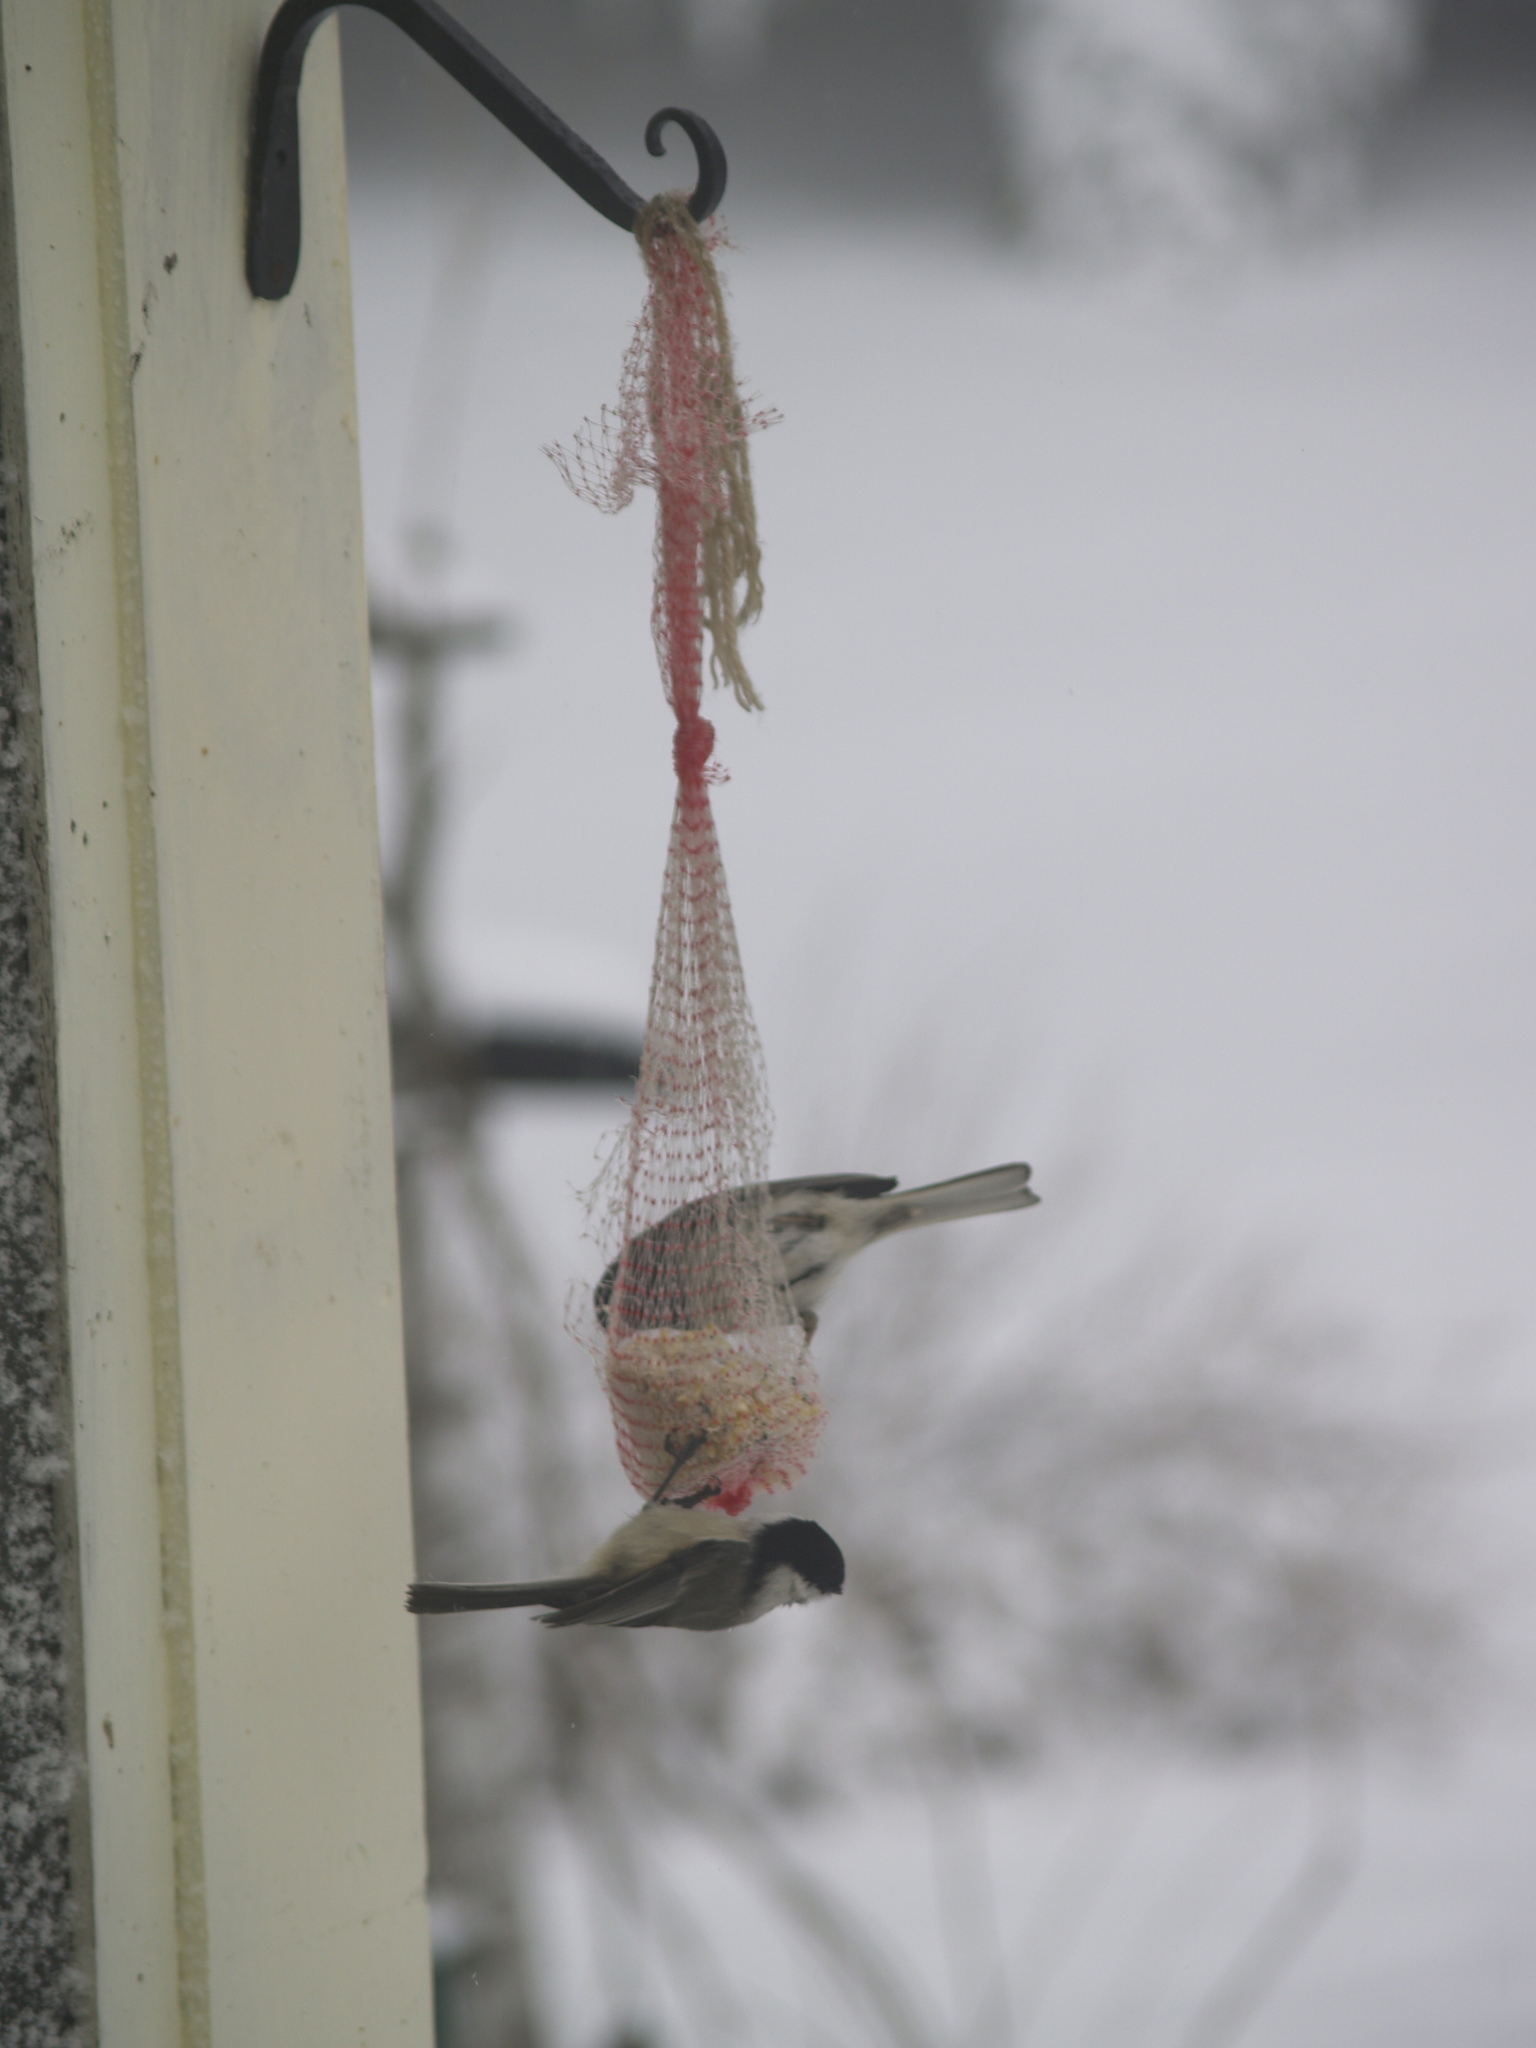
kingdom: Animalia
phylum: Chordata
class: Aves
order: Passeriformes
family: Paridae
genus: Poecile
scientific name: Poecile atricapillus
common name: Black-capped chickadee
